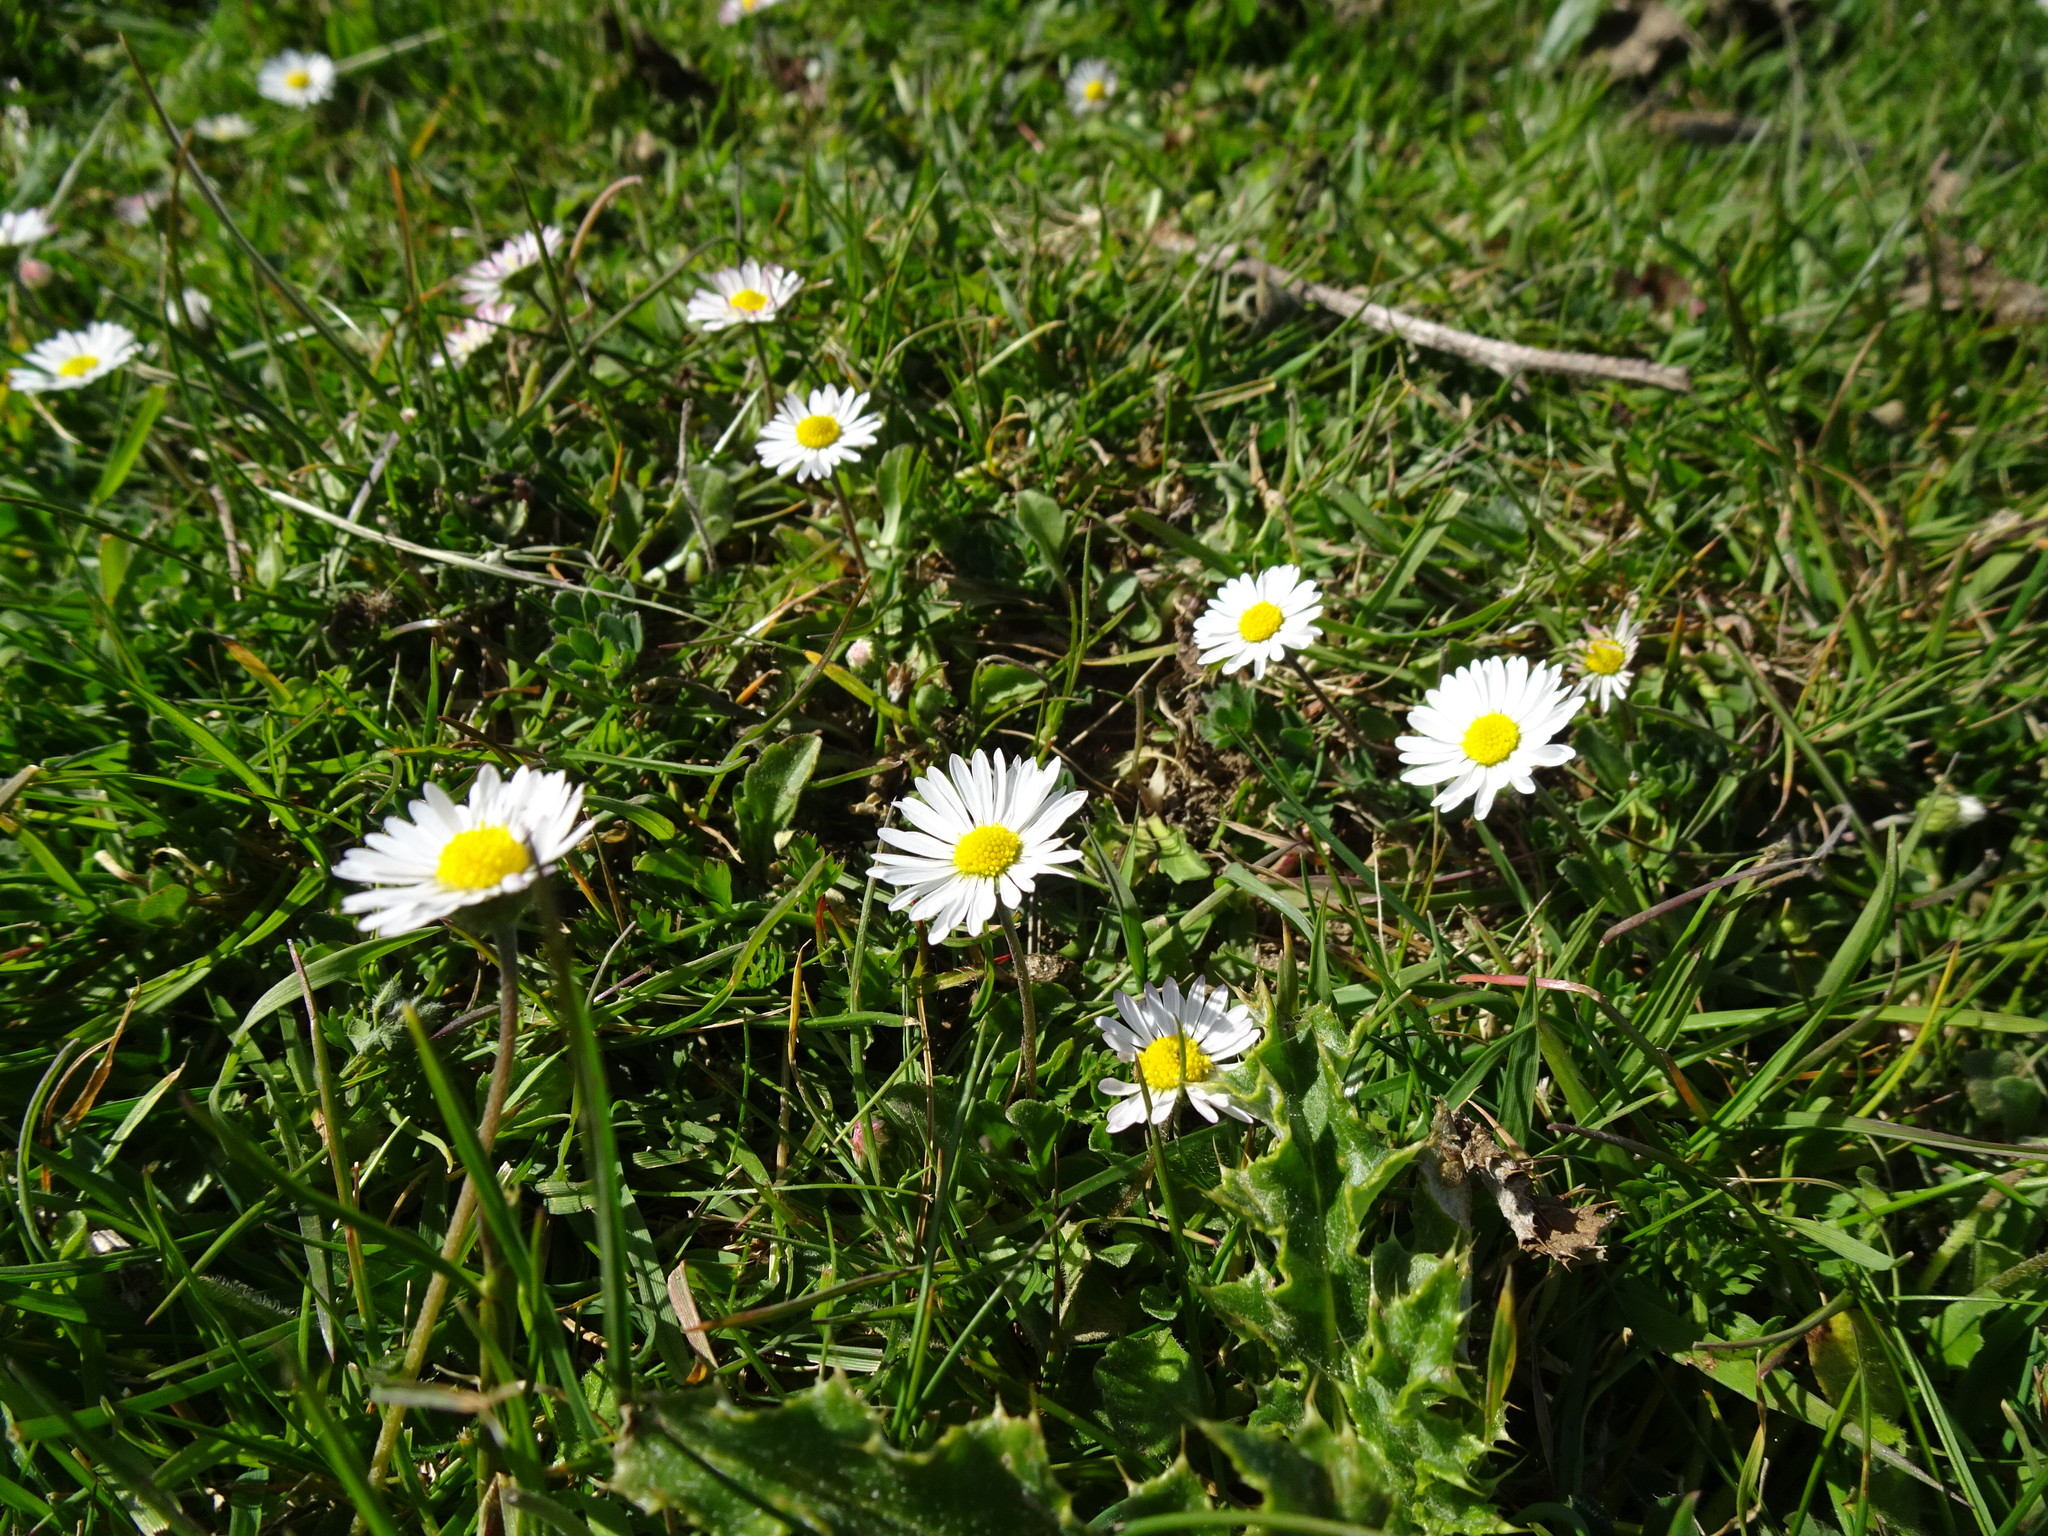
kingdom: Plantae
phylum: Tracheophyta
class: Magnoliopsida
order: Asterales
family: Asteraceae
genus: Bellis
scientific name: Bellis perennis
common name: Lawndaisy
